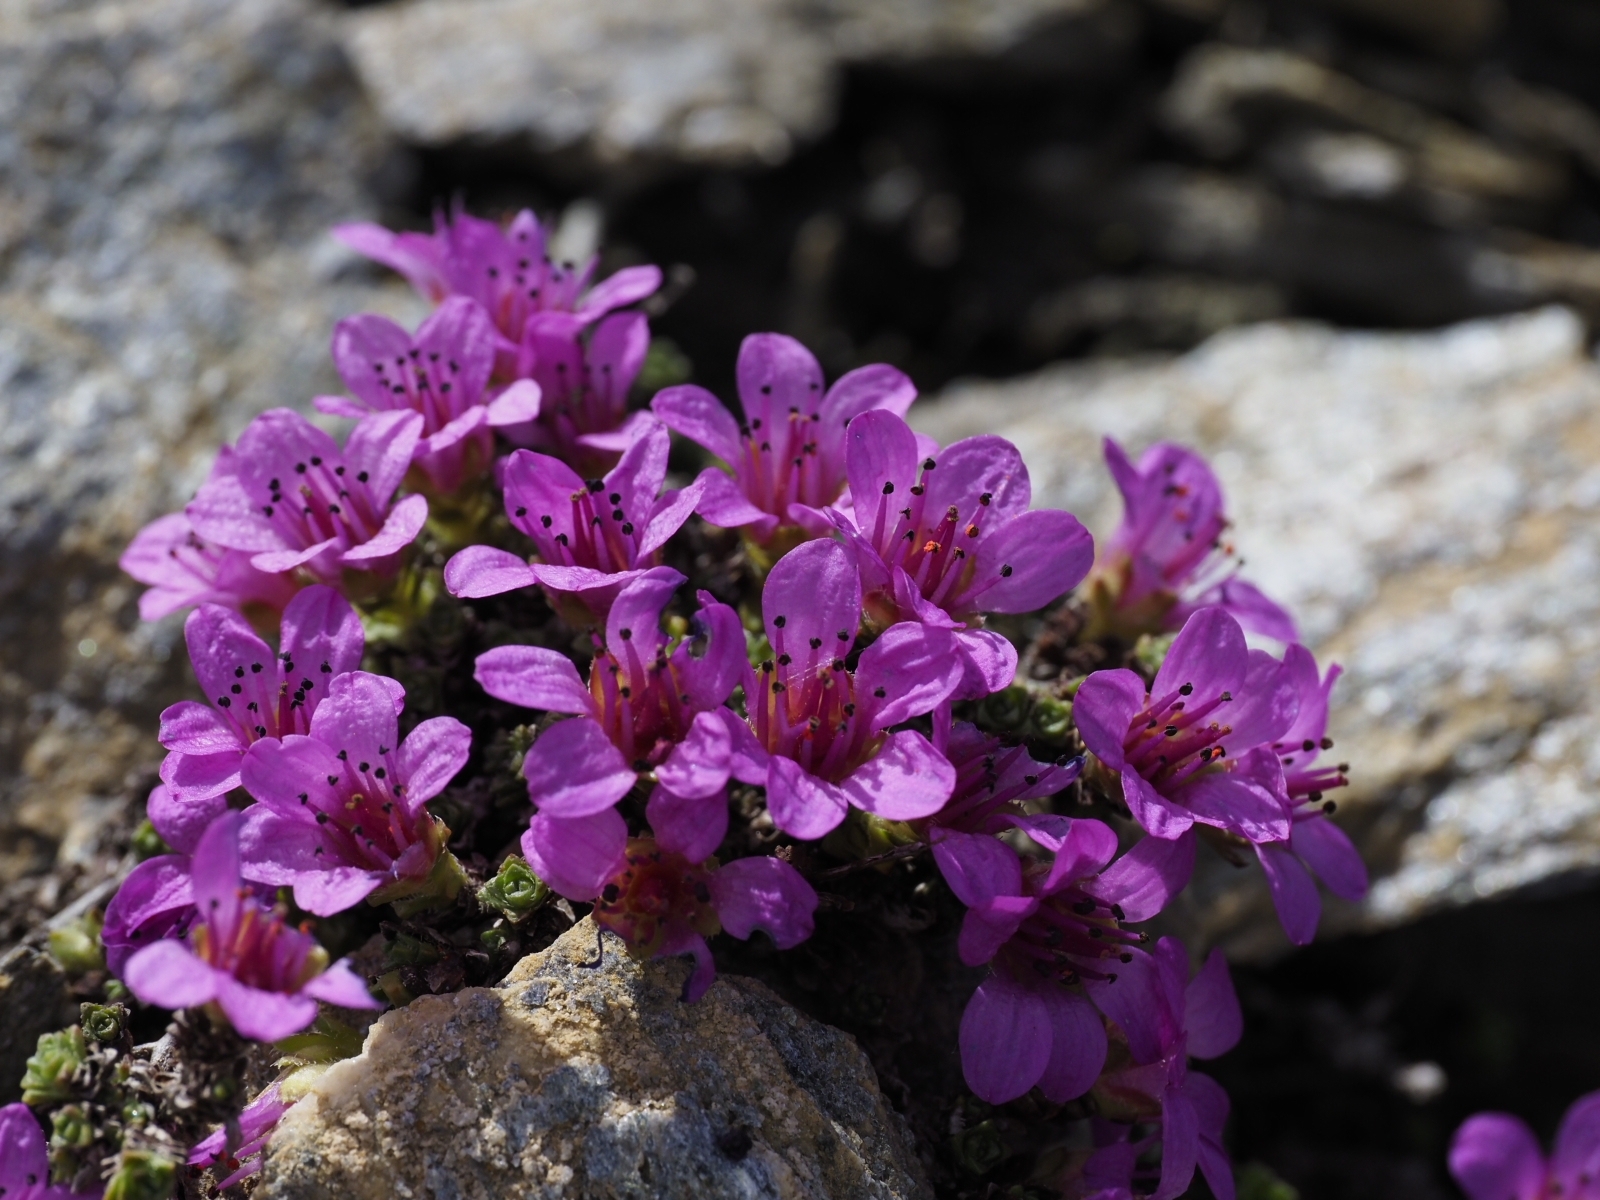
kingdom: Plantae
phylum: Tracheophyta
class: Magnoliopsida
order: Saxifragales
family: Saxifragaceae
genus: Saxifraga
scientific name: Saxifraga oppositifolia
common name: Purple saxifrage
